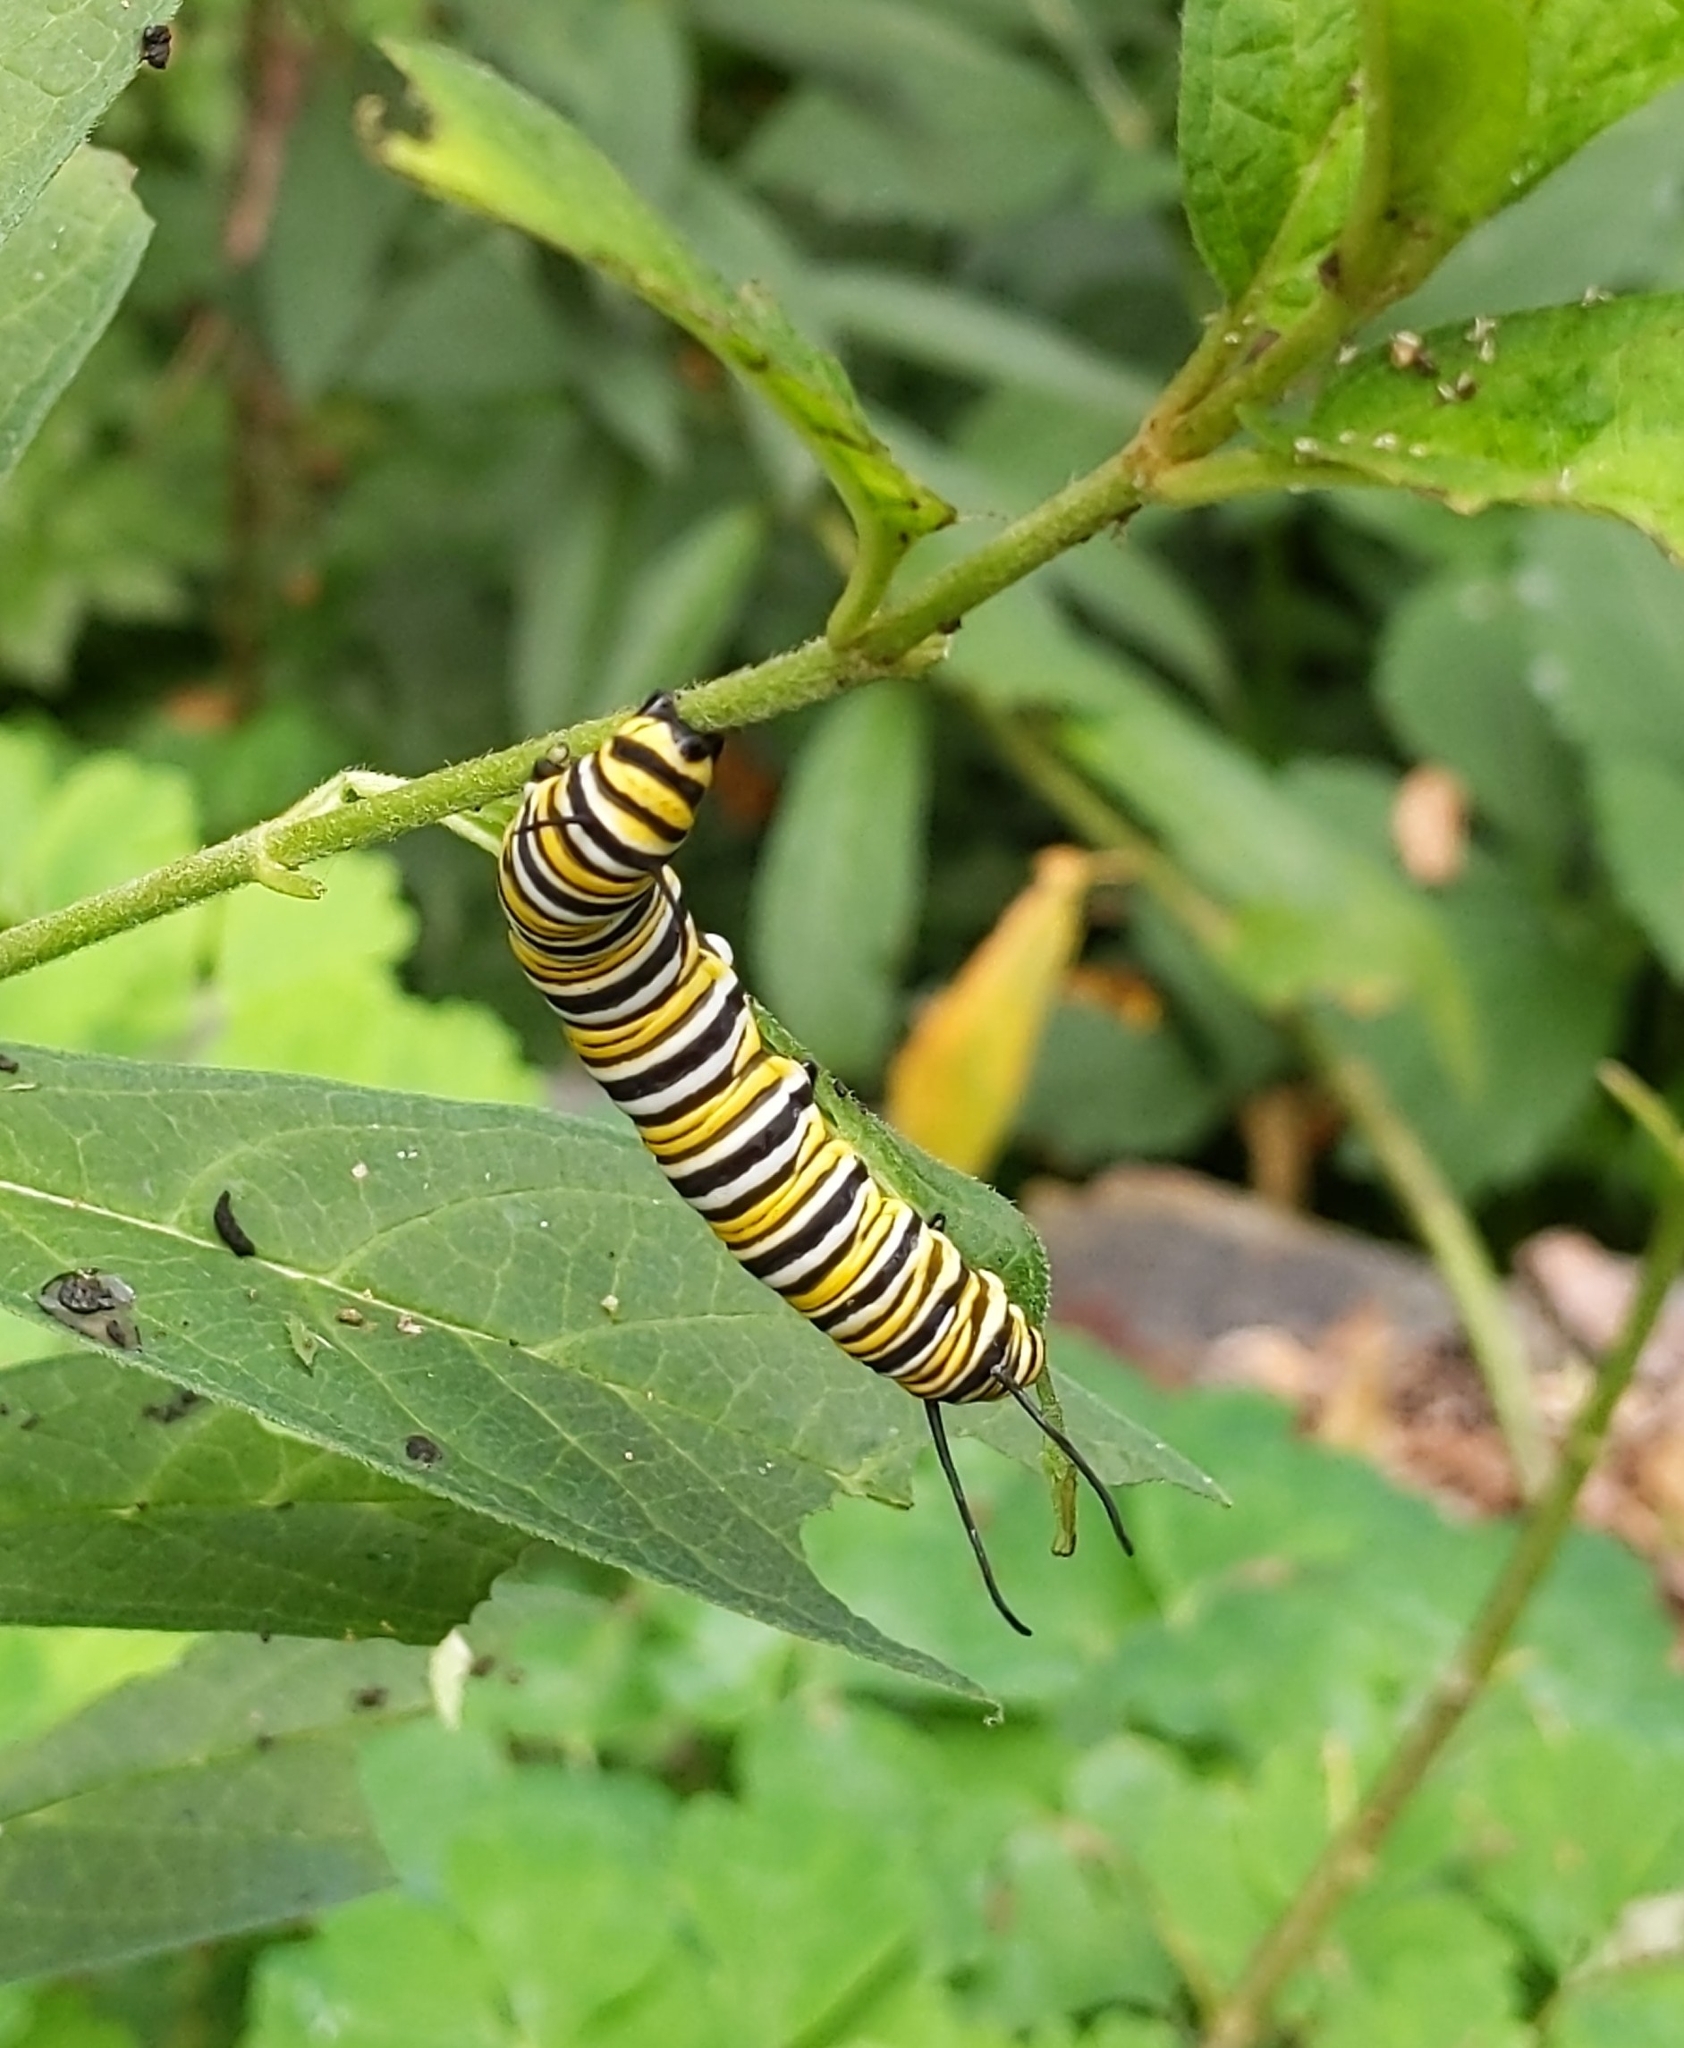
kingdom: Animalia
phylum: Arthropoda
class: Insecta
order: Lepidoptera
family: Nymphalidae
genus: Danaus
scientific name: Danaus plexippus
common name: Monarch
